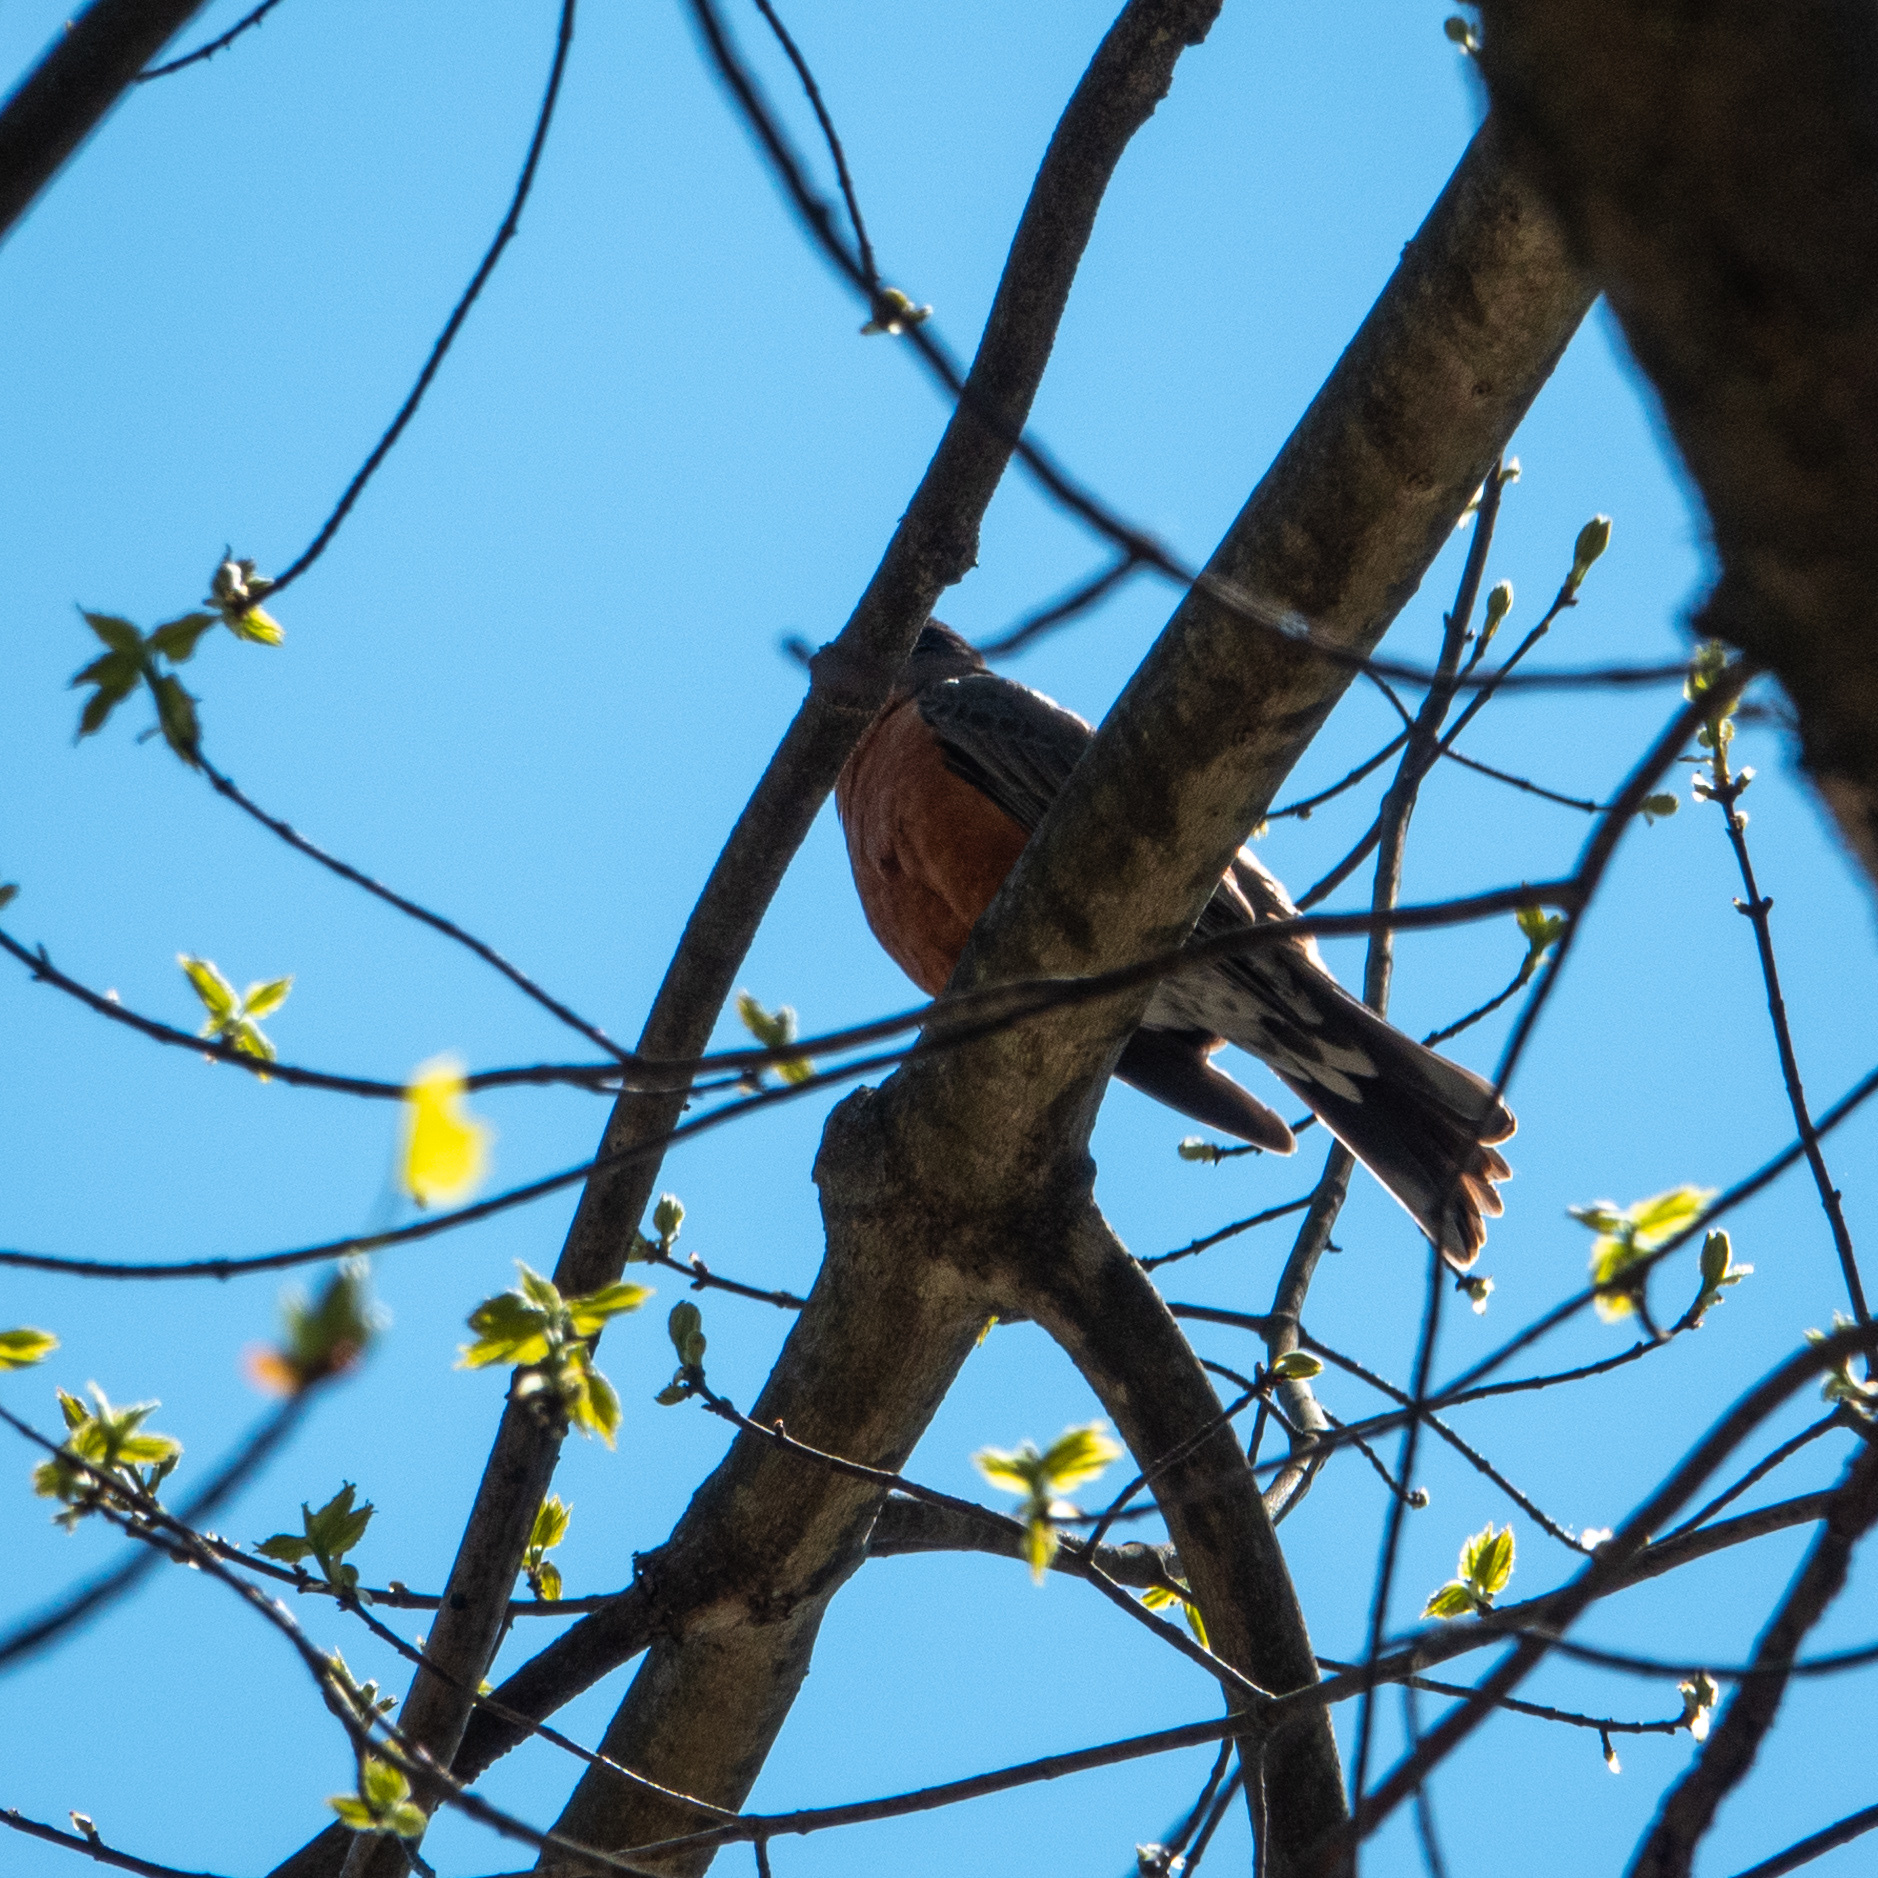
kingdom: Animalia
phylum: Chordata
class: Aves
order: Passeriformes
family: Turdidae
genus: Turdus
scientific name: Turdus migratorius
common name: American robin
